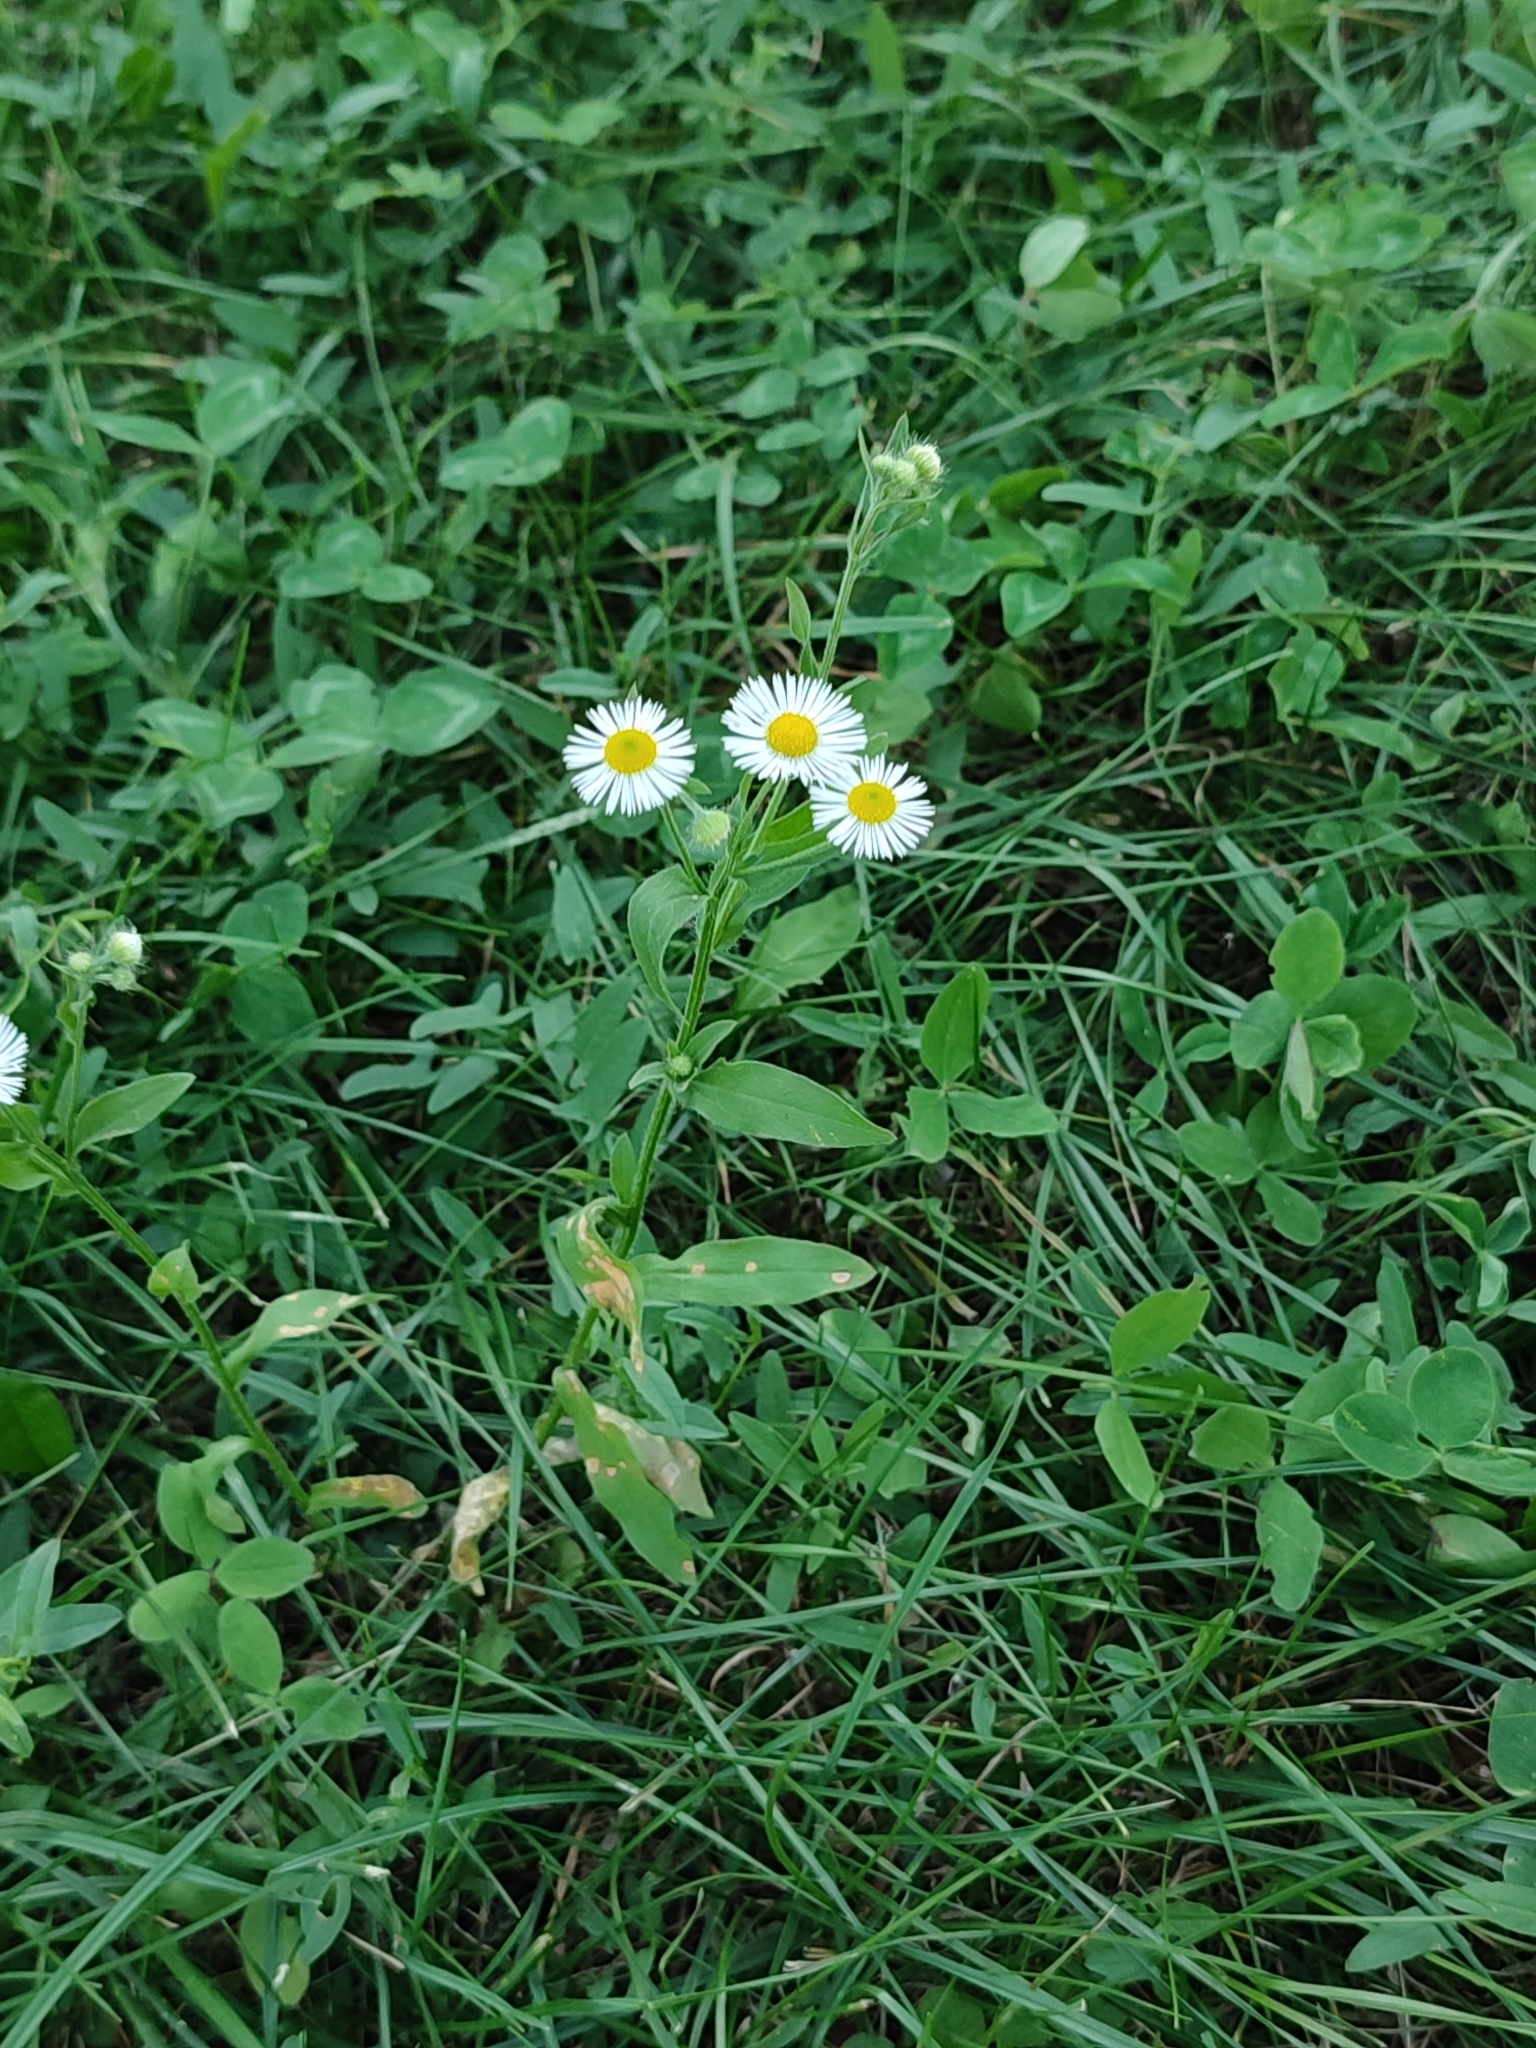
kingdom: Plantae
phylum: Tracheophyta
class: Magnoliopsida
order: Asterales
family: Asteraceae
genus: Erigeron
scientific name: Erigeron annuus
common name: Tall fleabane
